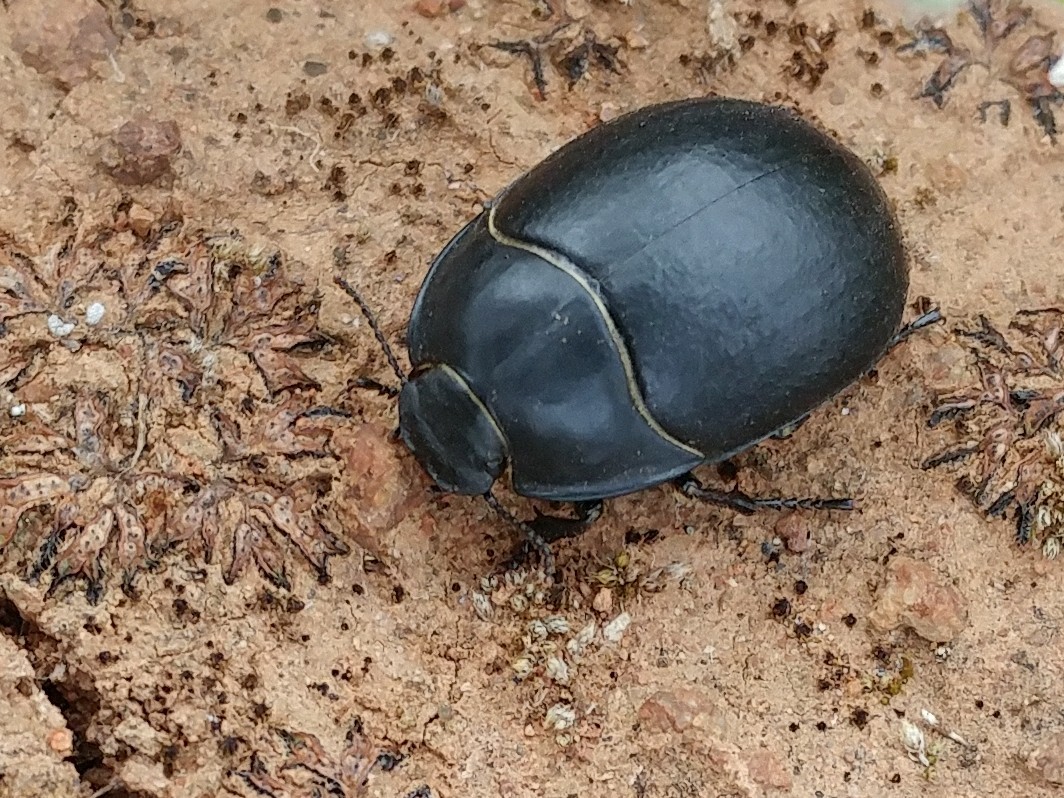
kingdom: Animalia
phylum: Arthropoda
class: Insecta
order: Coleoptera
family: Tenebrionidae
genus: Eusattus
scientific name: Eusattus robustus
